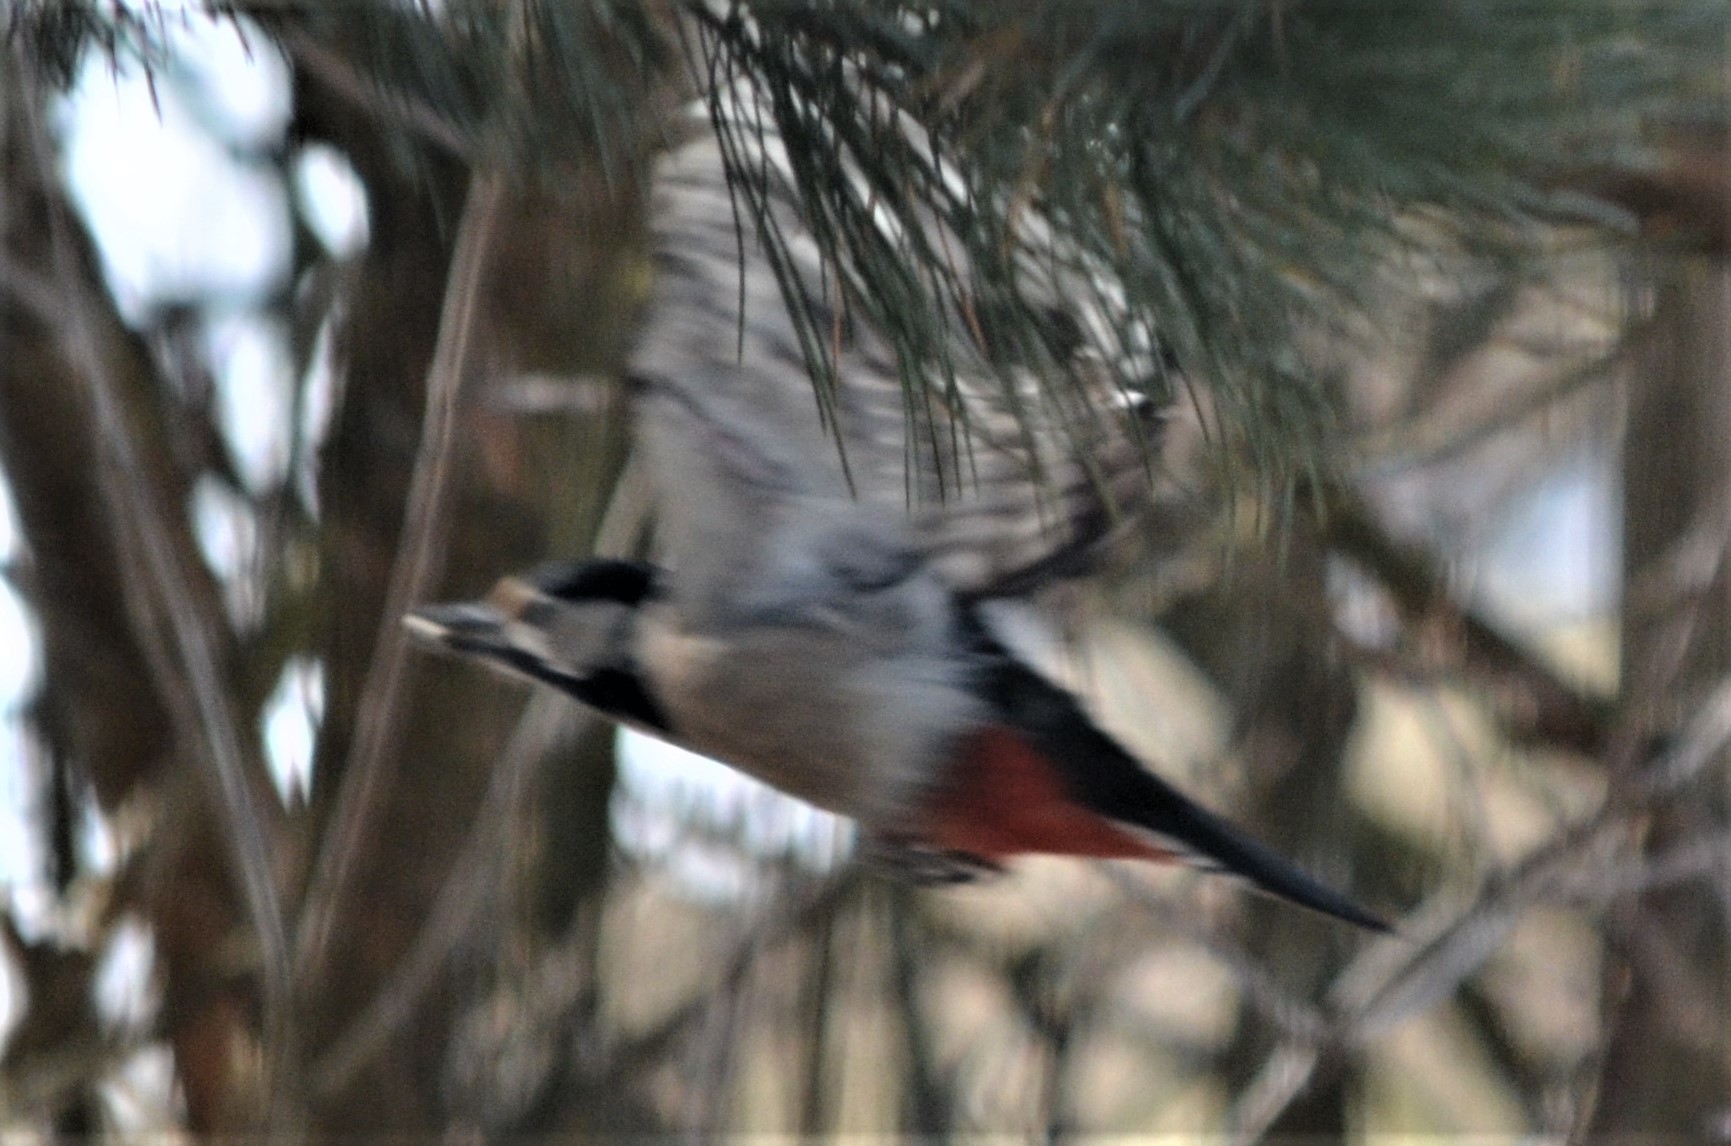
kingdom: Animalia
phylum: Chordata
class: Aves
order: Piciformes
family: Picidae
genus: Dendrocopos
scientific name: Dendrocopos major
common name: Great spotted woodpecker
